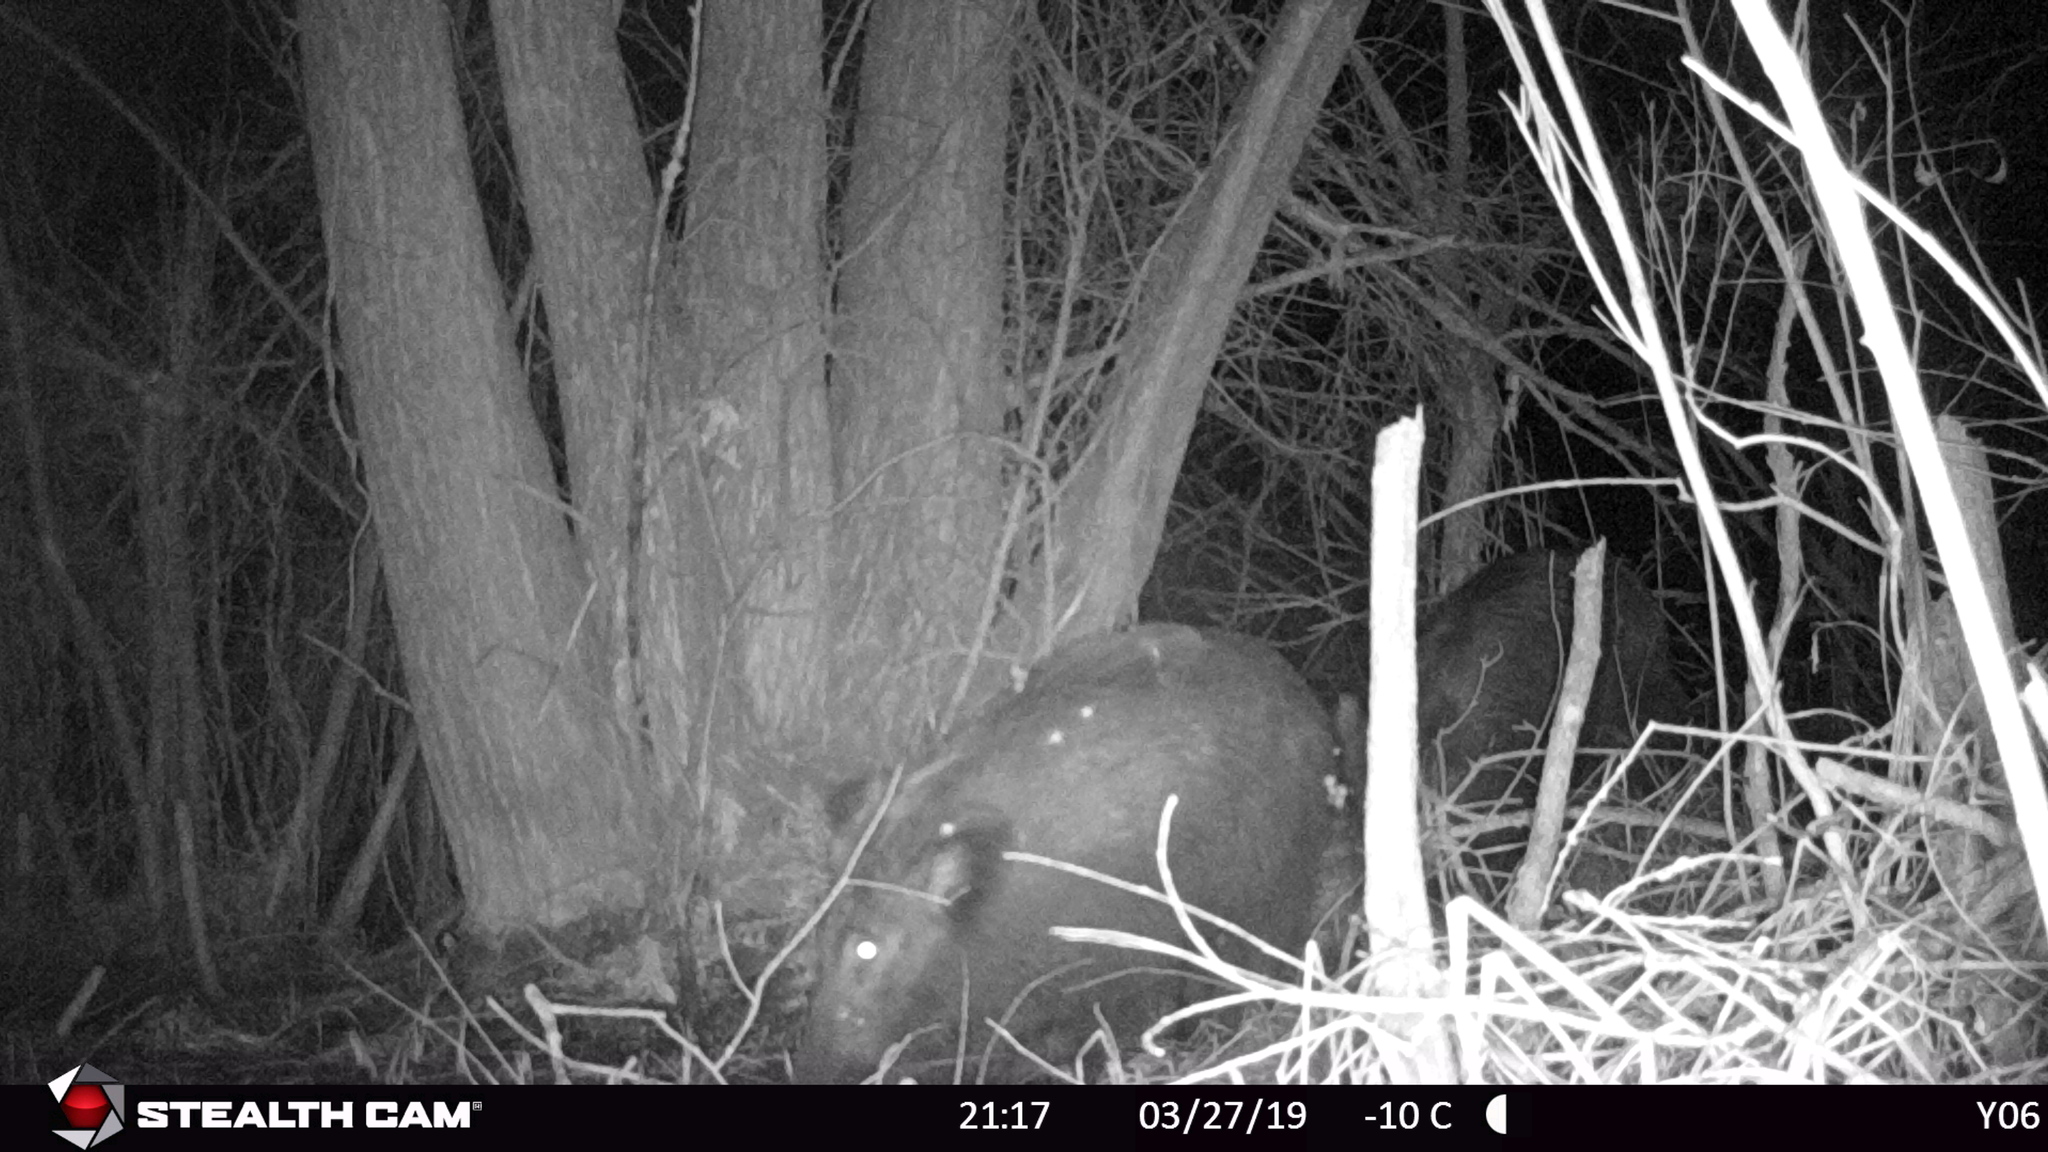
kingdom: Animalia
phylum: Chordata
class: Mammalia
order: Artiodactyla
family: Suidae
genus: Sus
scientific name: Sus scrofa
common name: Wild boar
